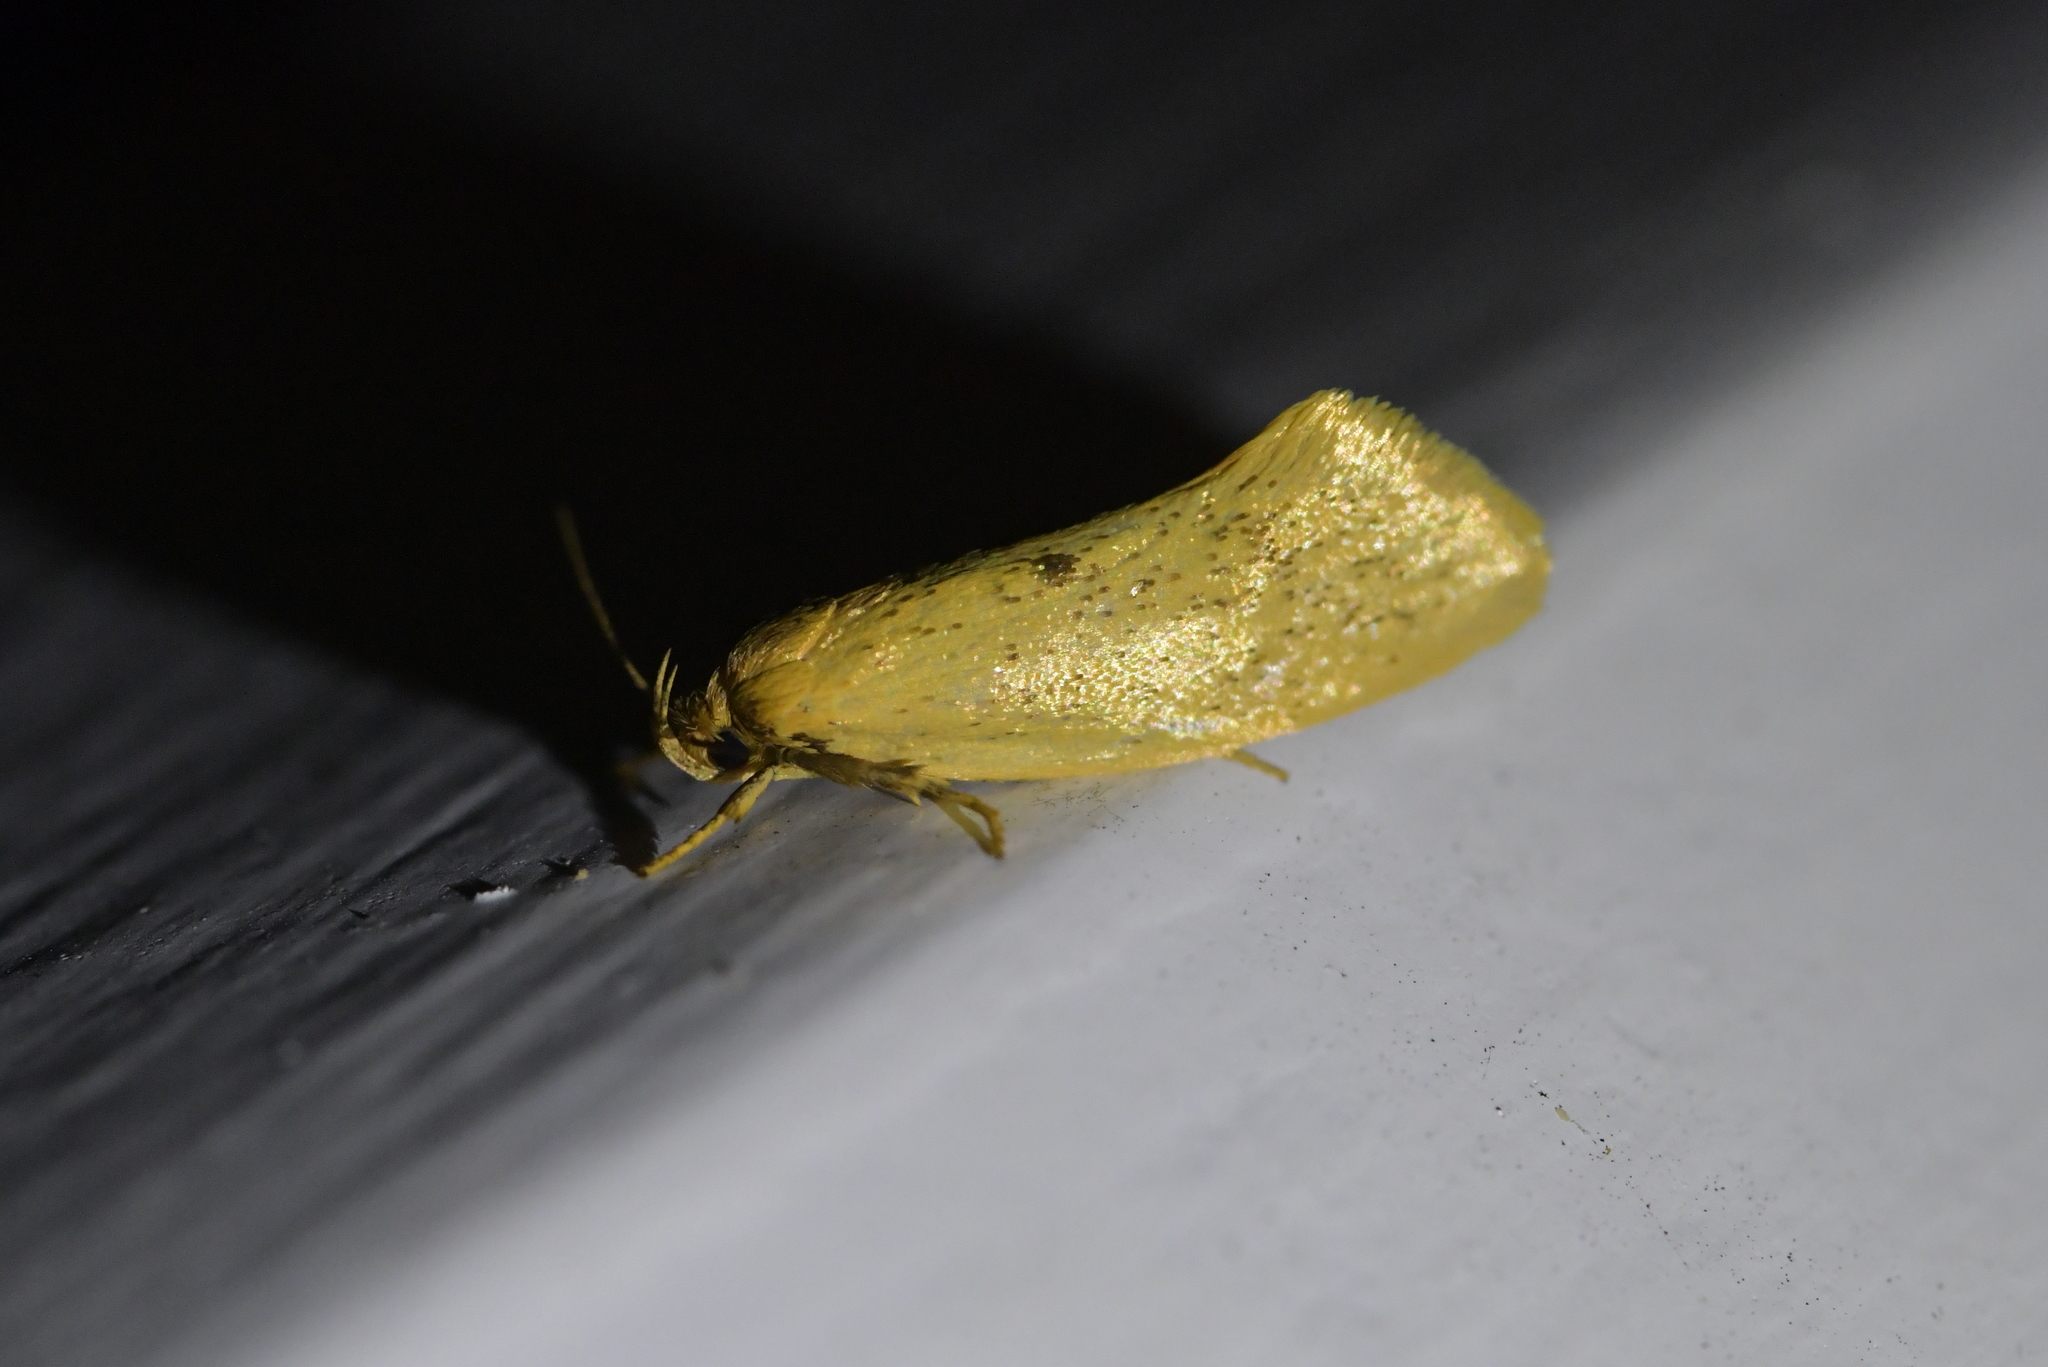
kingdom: Animalia
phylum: Arthropoda
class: Insecta
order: Lepidoptera
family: Oecophoridae
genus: Tingena
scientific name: Tingena armigerella
